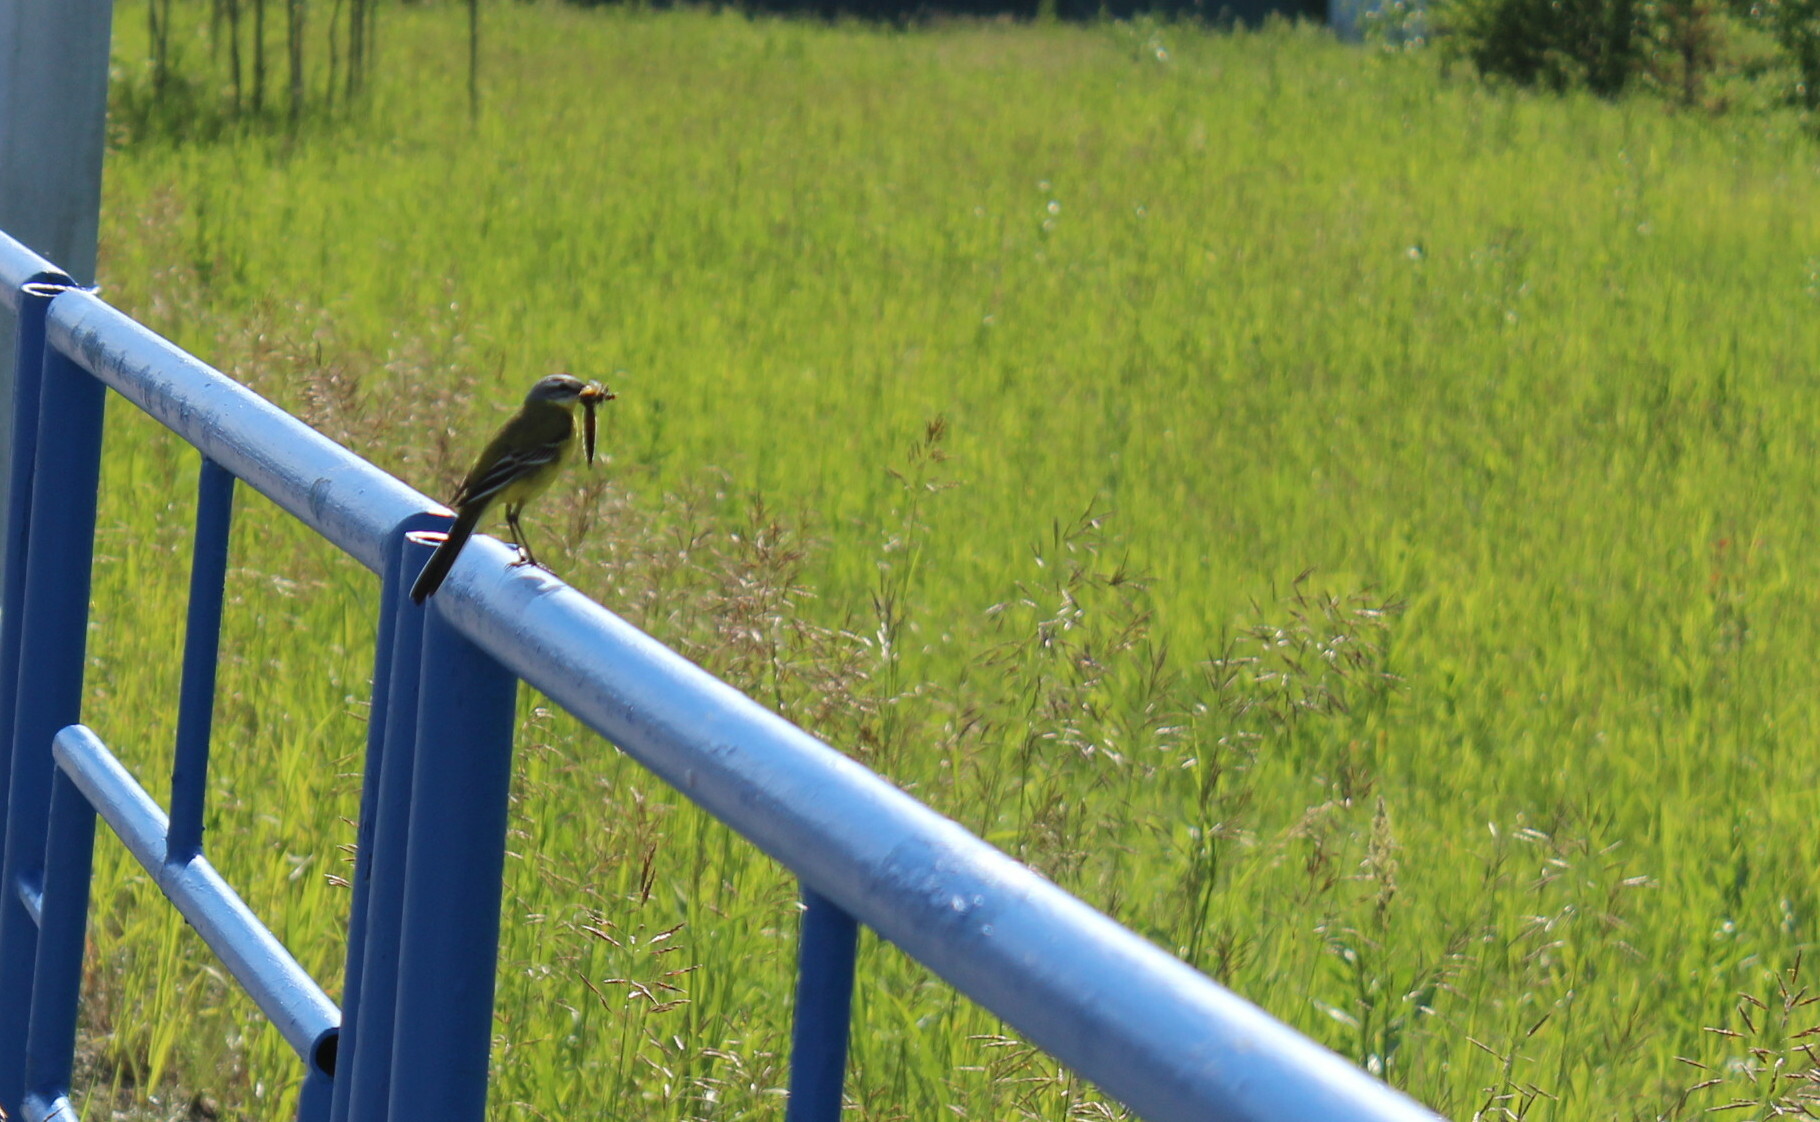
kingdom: Animalia
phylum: Chordata
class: Aves
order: Passeriformes
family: Motacillidae
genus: Motacilla
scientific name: Motacilla flava
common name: Western yellow wagtail
